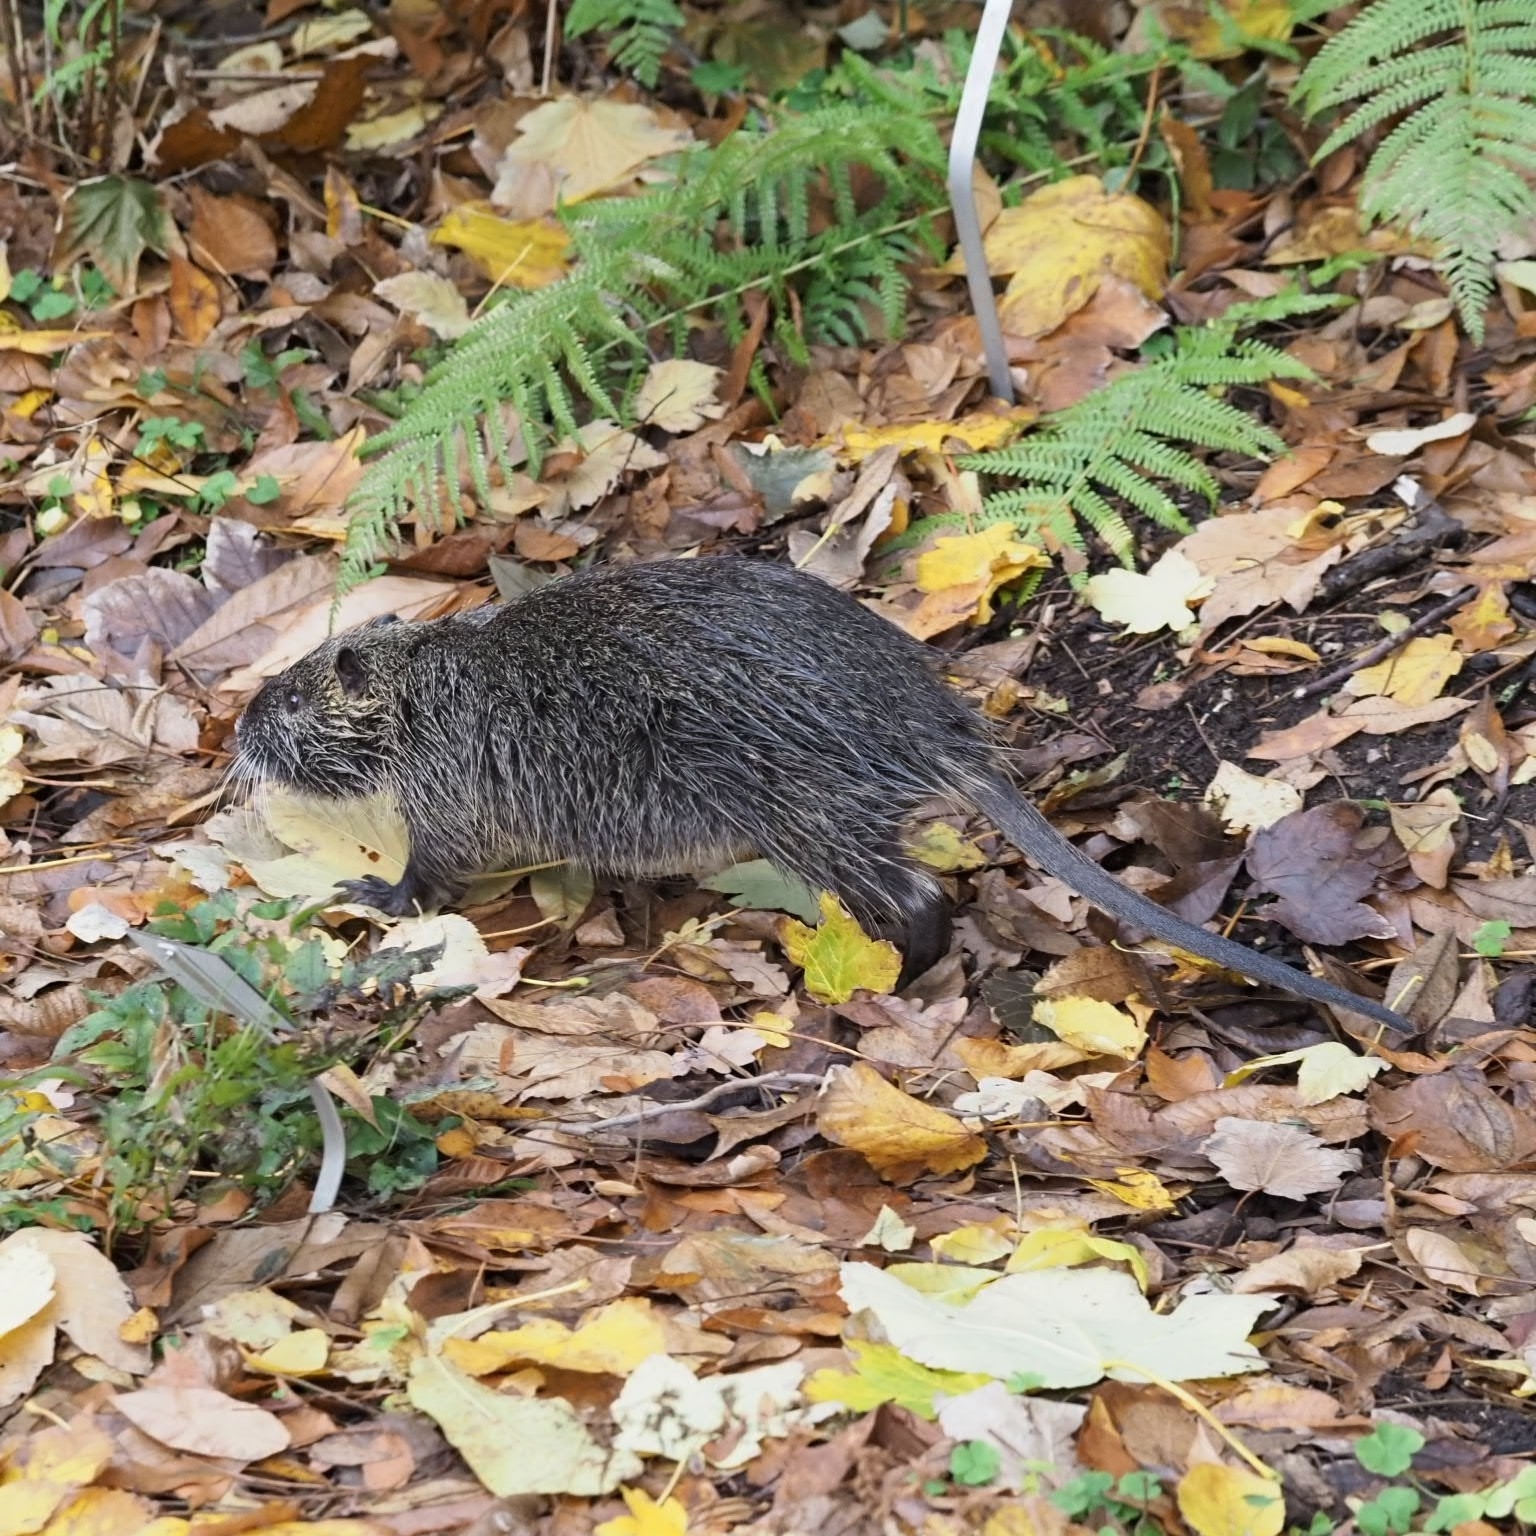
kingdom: Animalia
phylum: Chordata
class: Mammalia
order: Rodentia
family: Myocastoridae
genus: Myocastor
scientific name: Myocastor coypus
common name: Coypu
